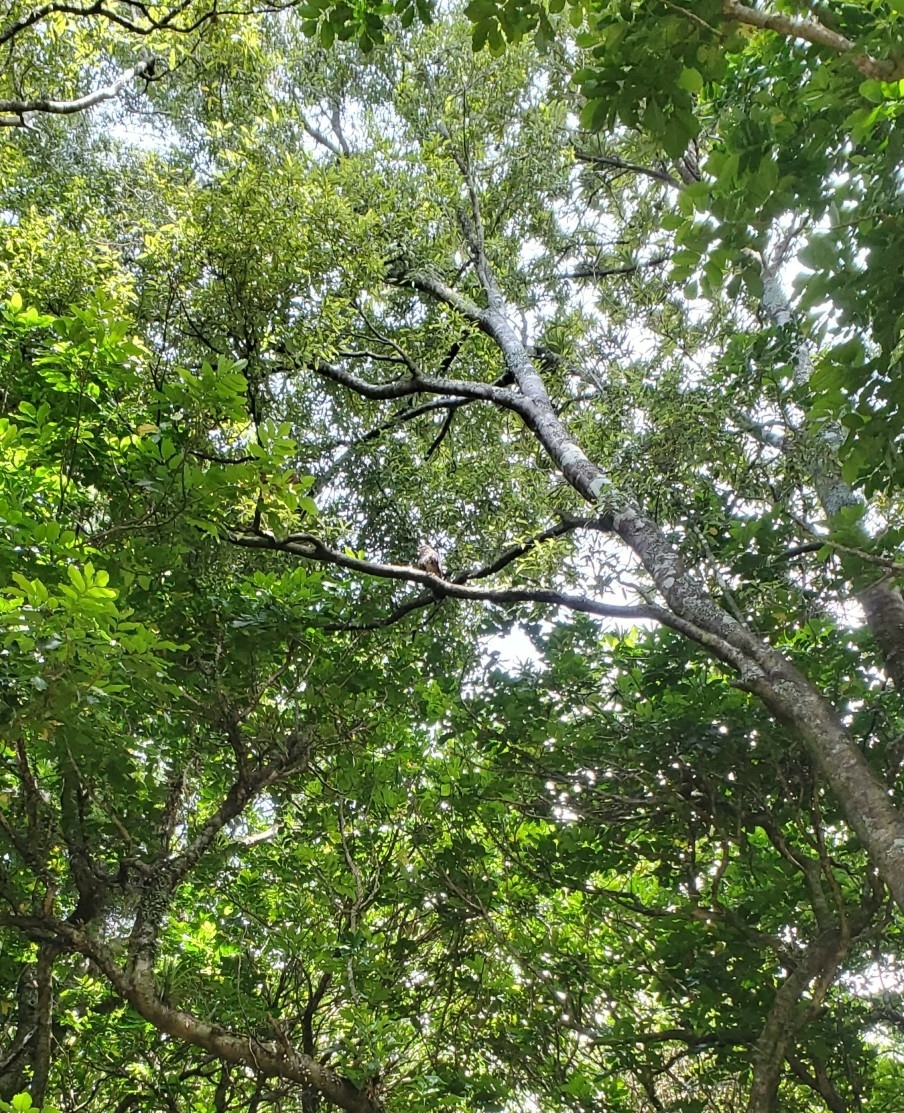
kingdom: Animalia
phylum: Chordata
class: Aves
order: Falconiformes
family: Falconidae
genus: Falco
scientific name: Falco novaeseelandiae
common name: New zealand falcon
